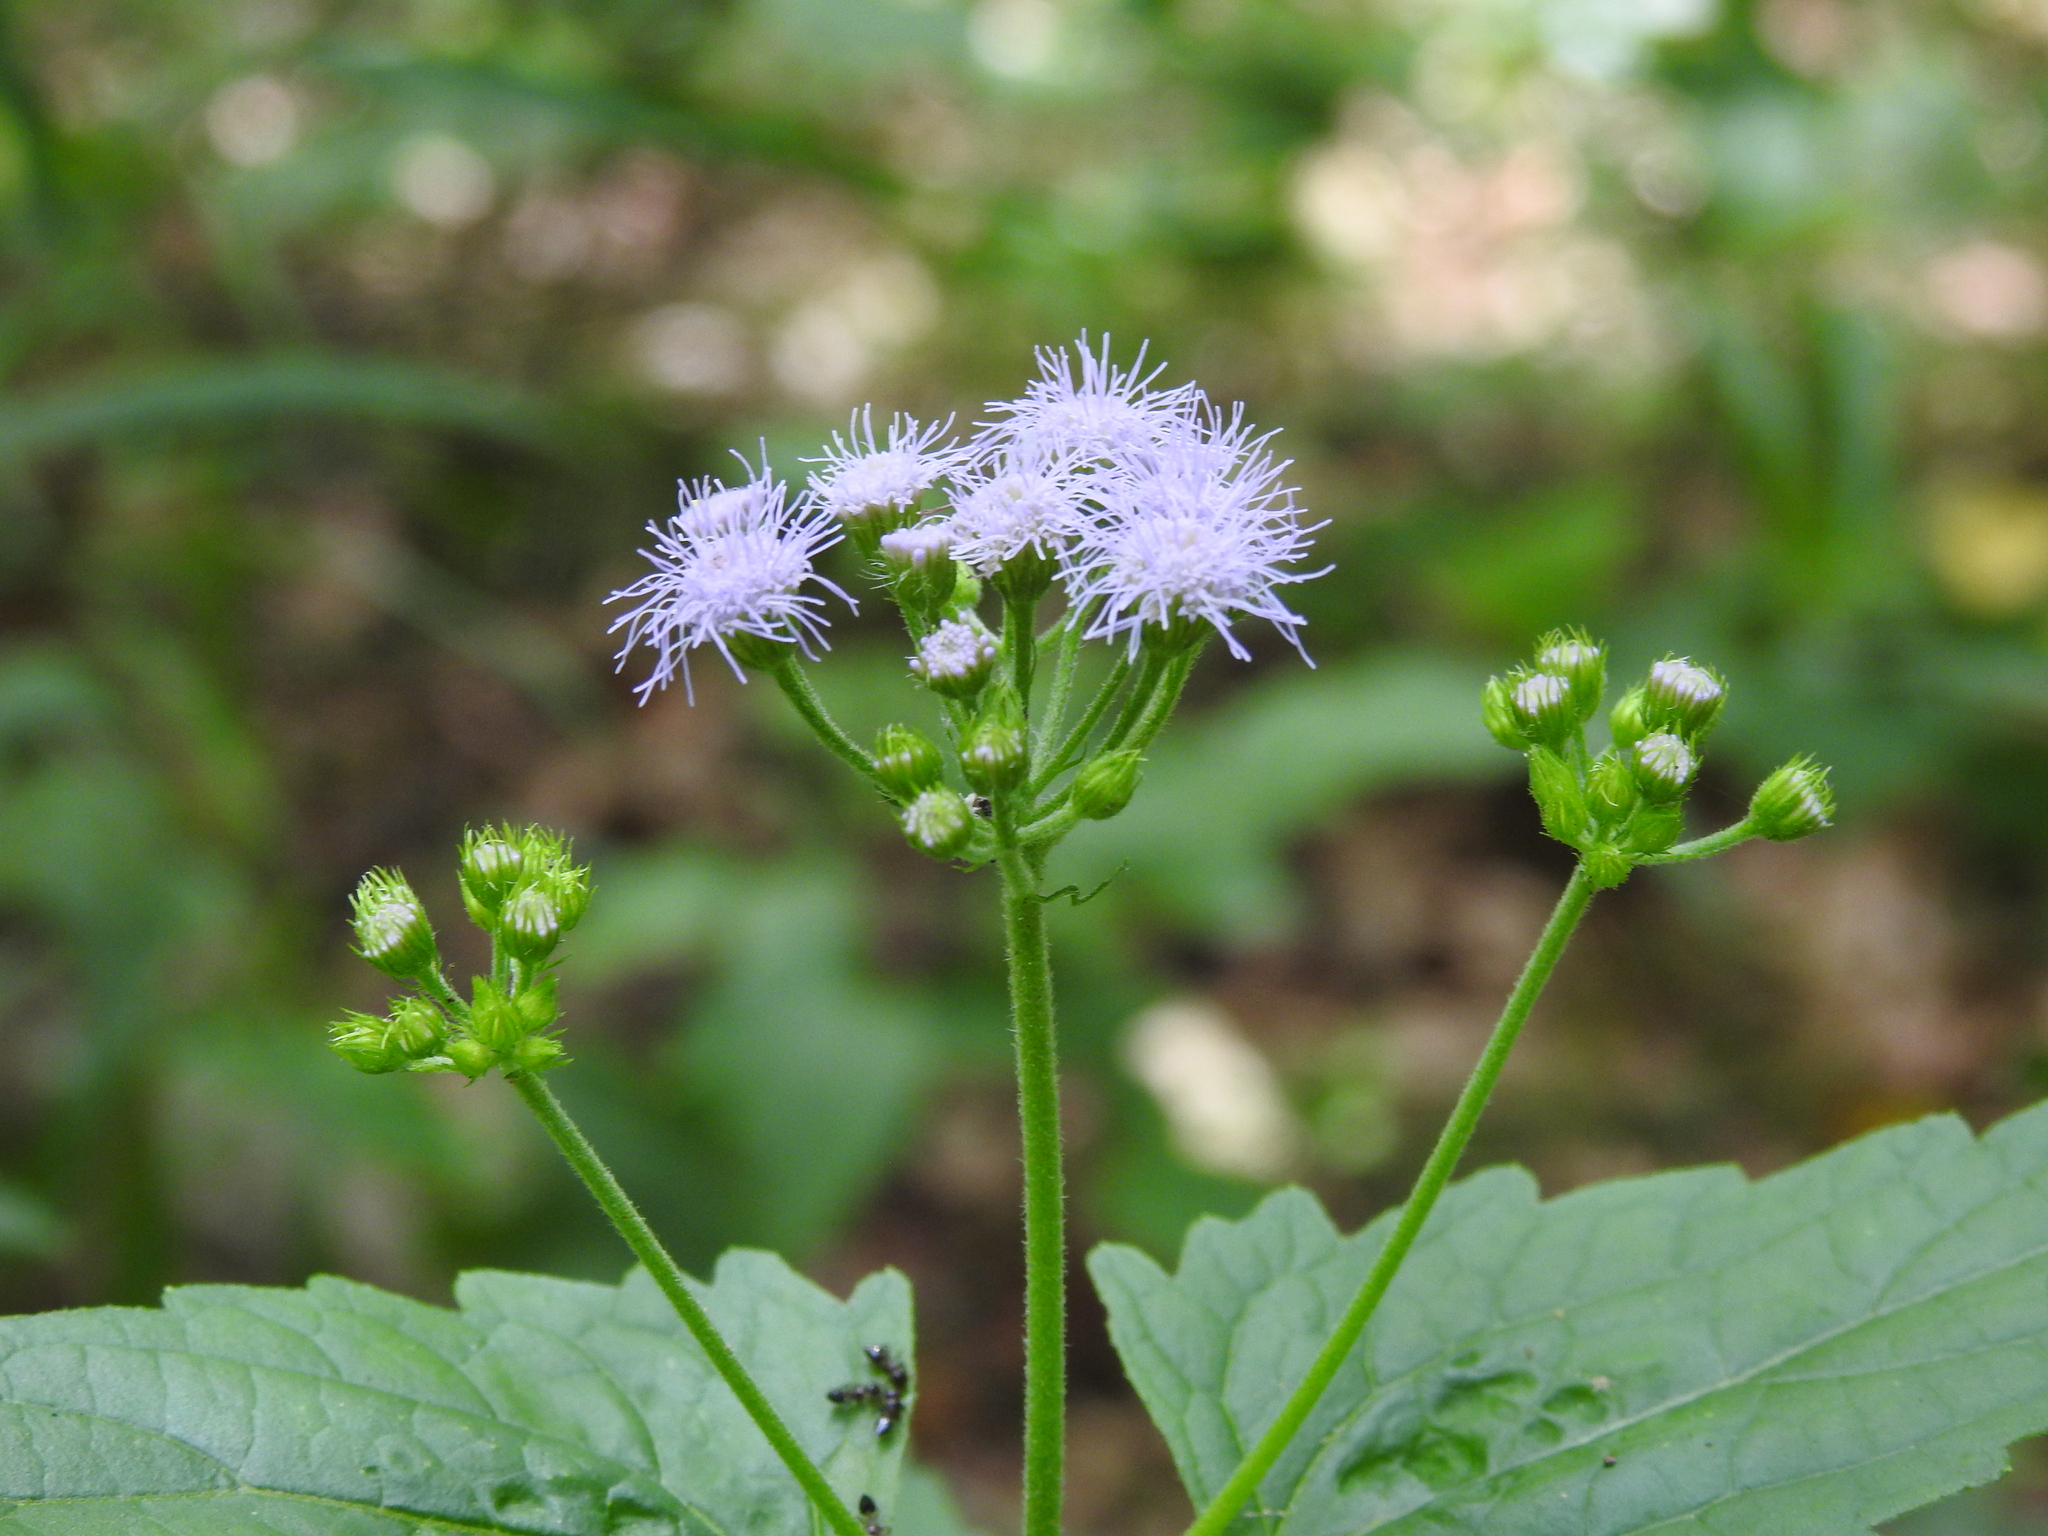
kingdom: Plantae
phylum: Tracheophyta
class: Magnoliopsida
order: Asterales
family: Asteraceae
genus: Conoclinium
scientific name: Conoclinium coelestinum
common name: Blue mistflower
